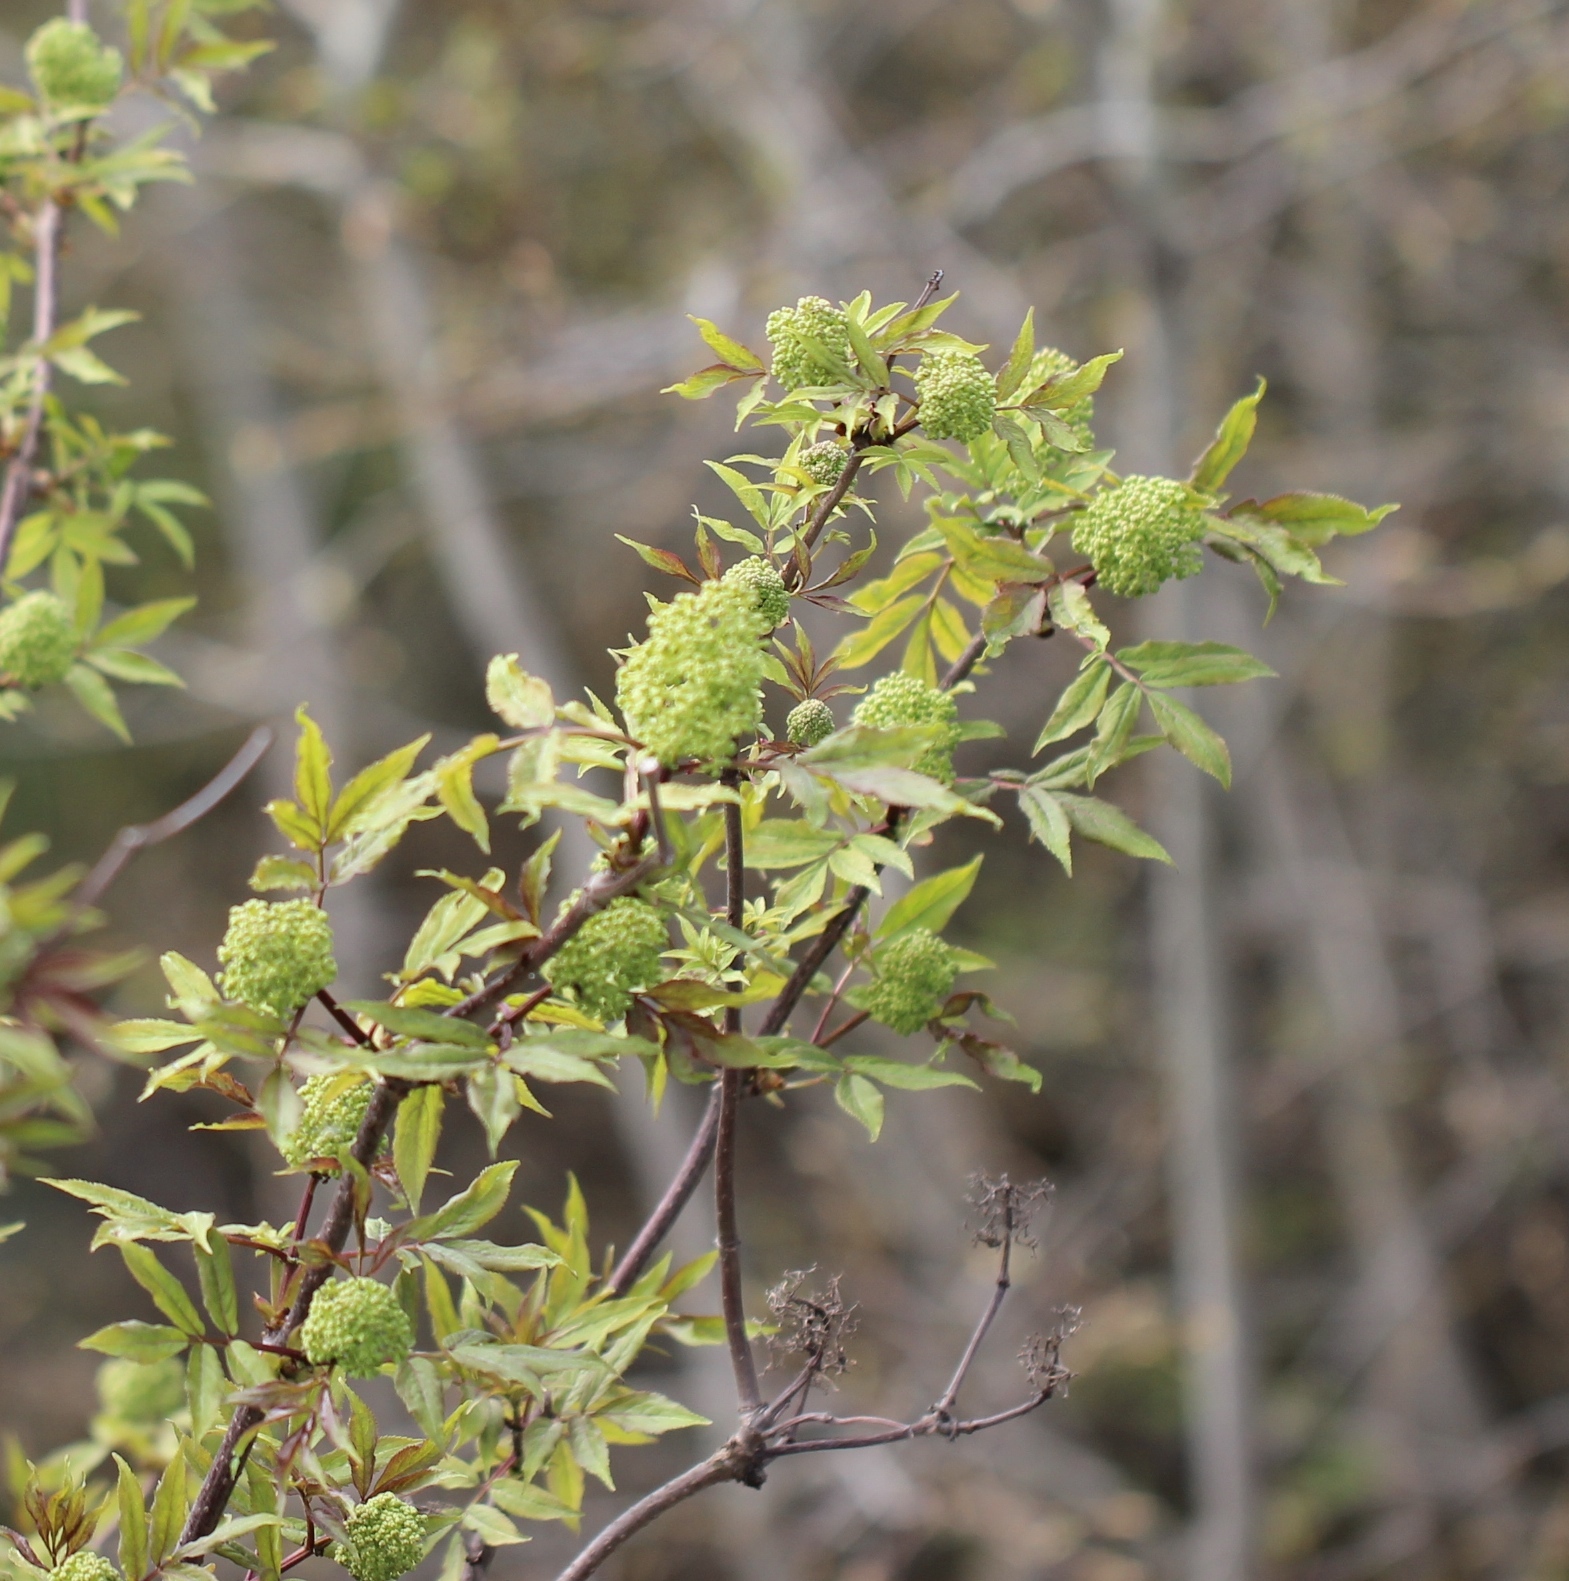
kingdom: Plantae
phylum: Tracheophyta
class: Magnoliopsida
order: Dipsacales
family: Viburnaceae
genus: Sambucus
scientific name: Sambucus racemosa
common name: Red-berried elder
